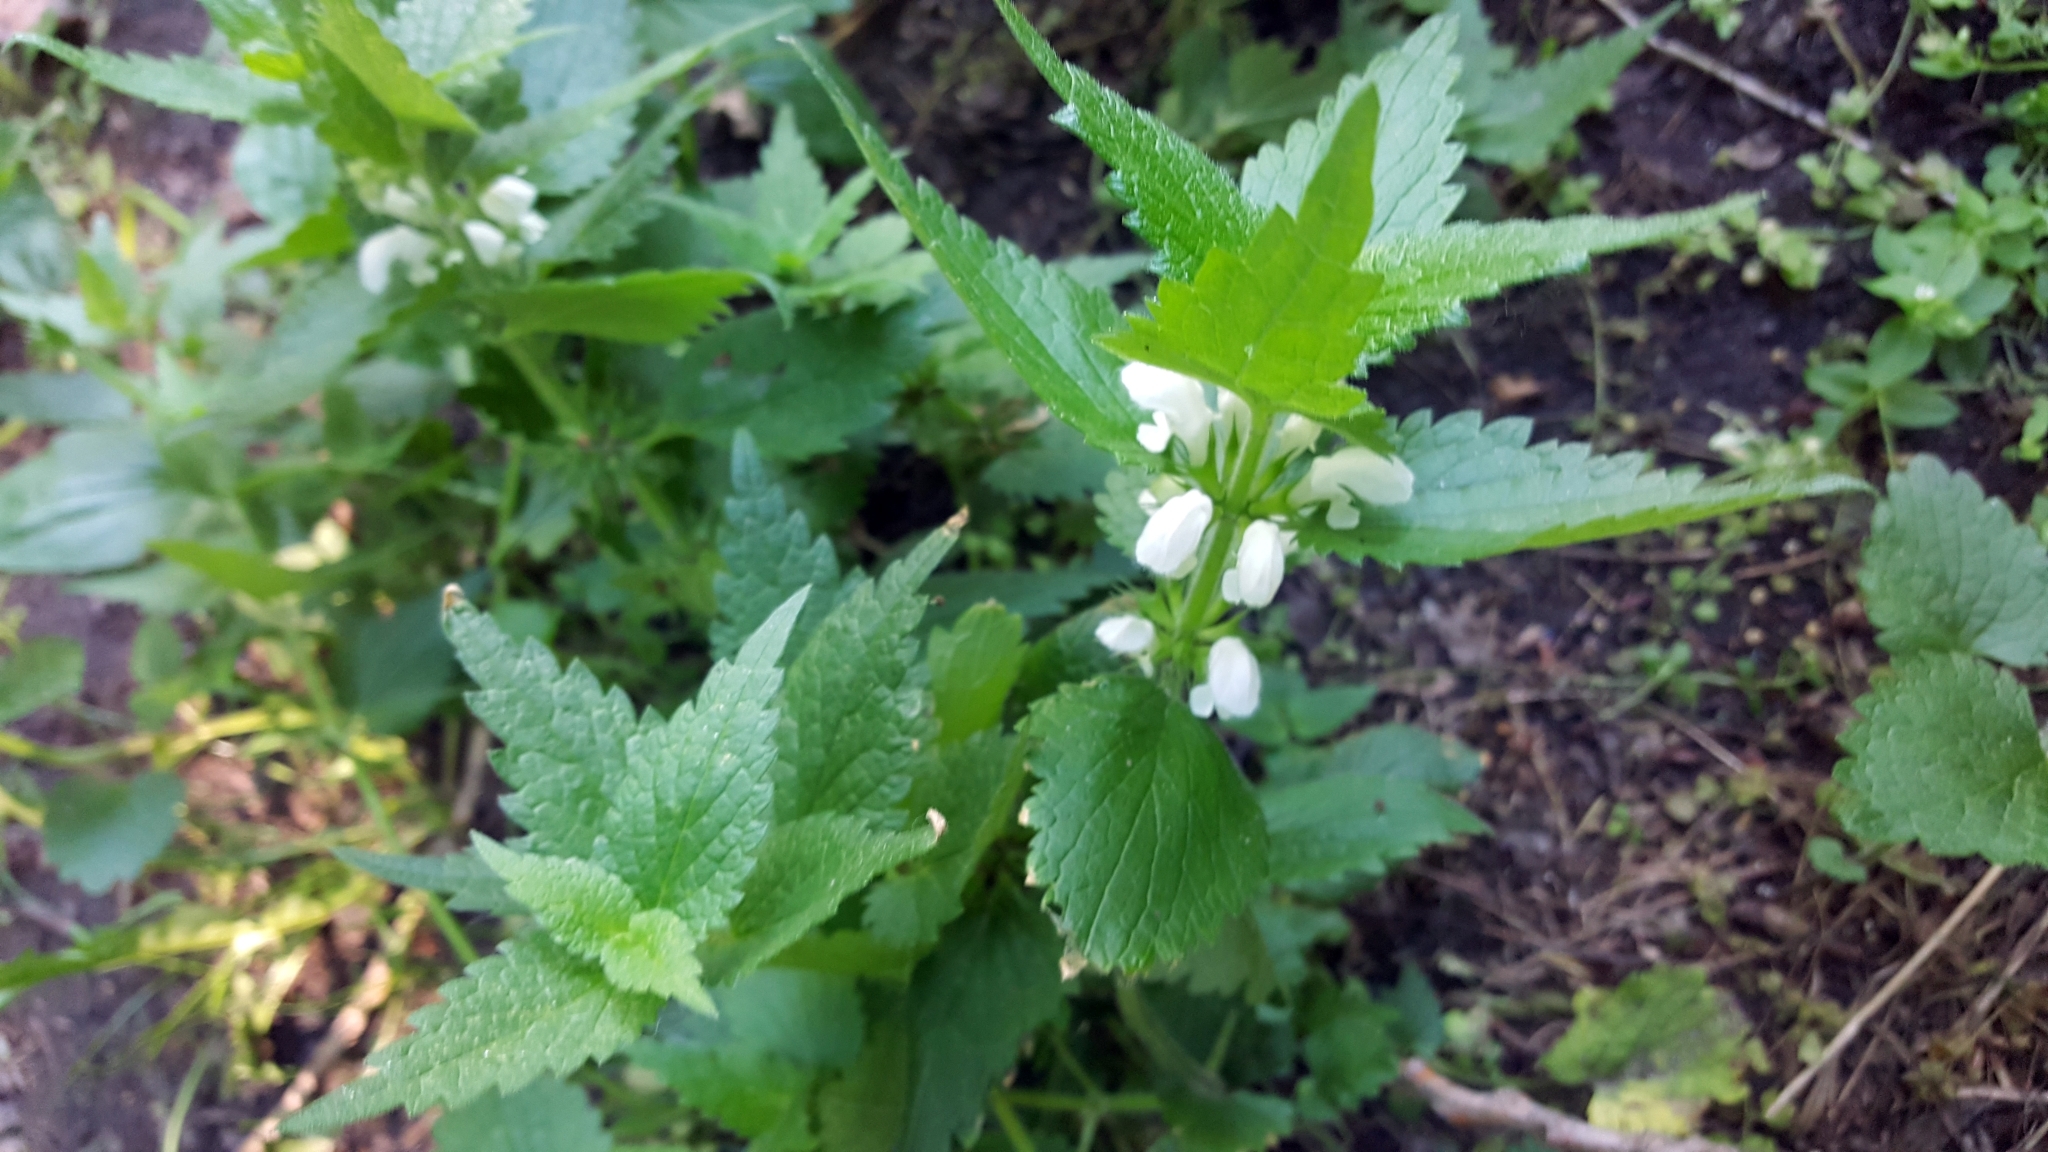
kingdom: Plantae
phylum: Tracheophyta
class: Magnoliopsida
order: Lamiales
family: Lamiaceae
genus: Lamium
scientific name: Lamium album
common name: White dead-nettle
